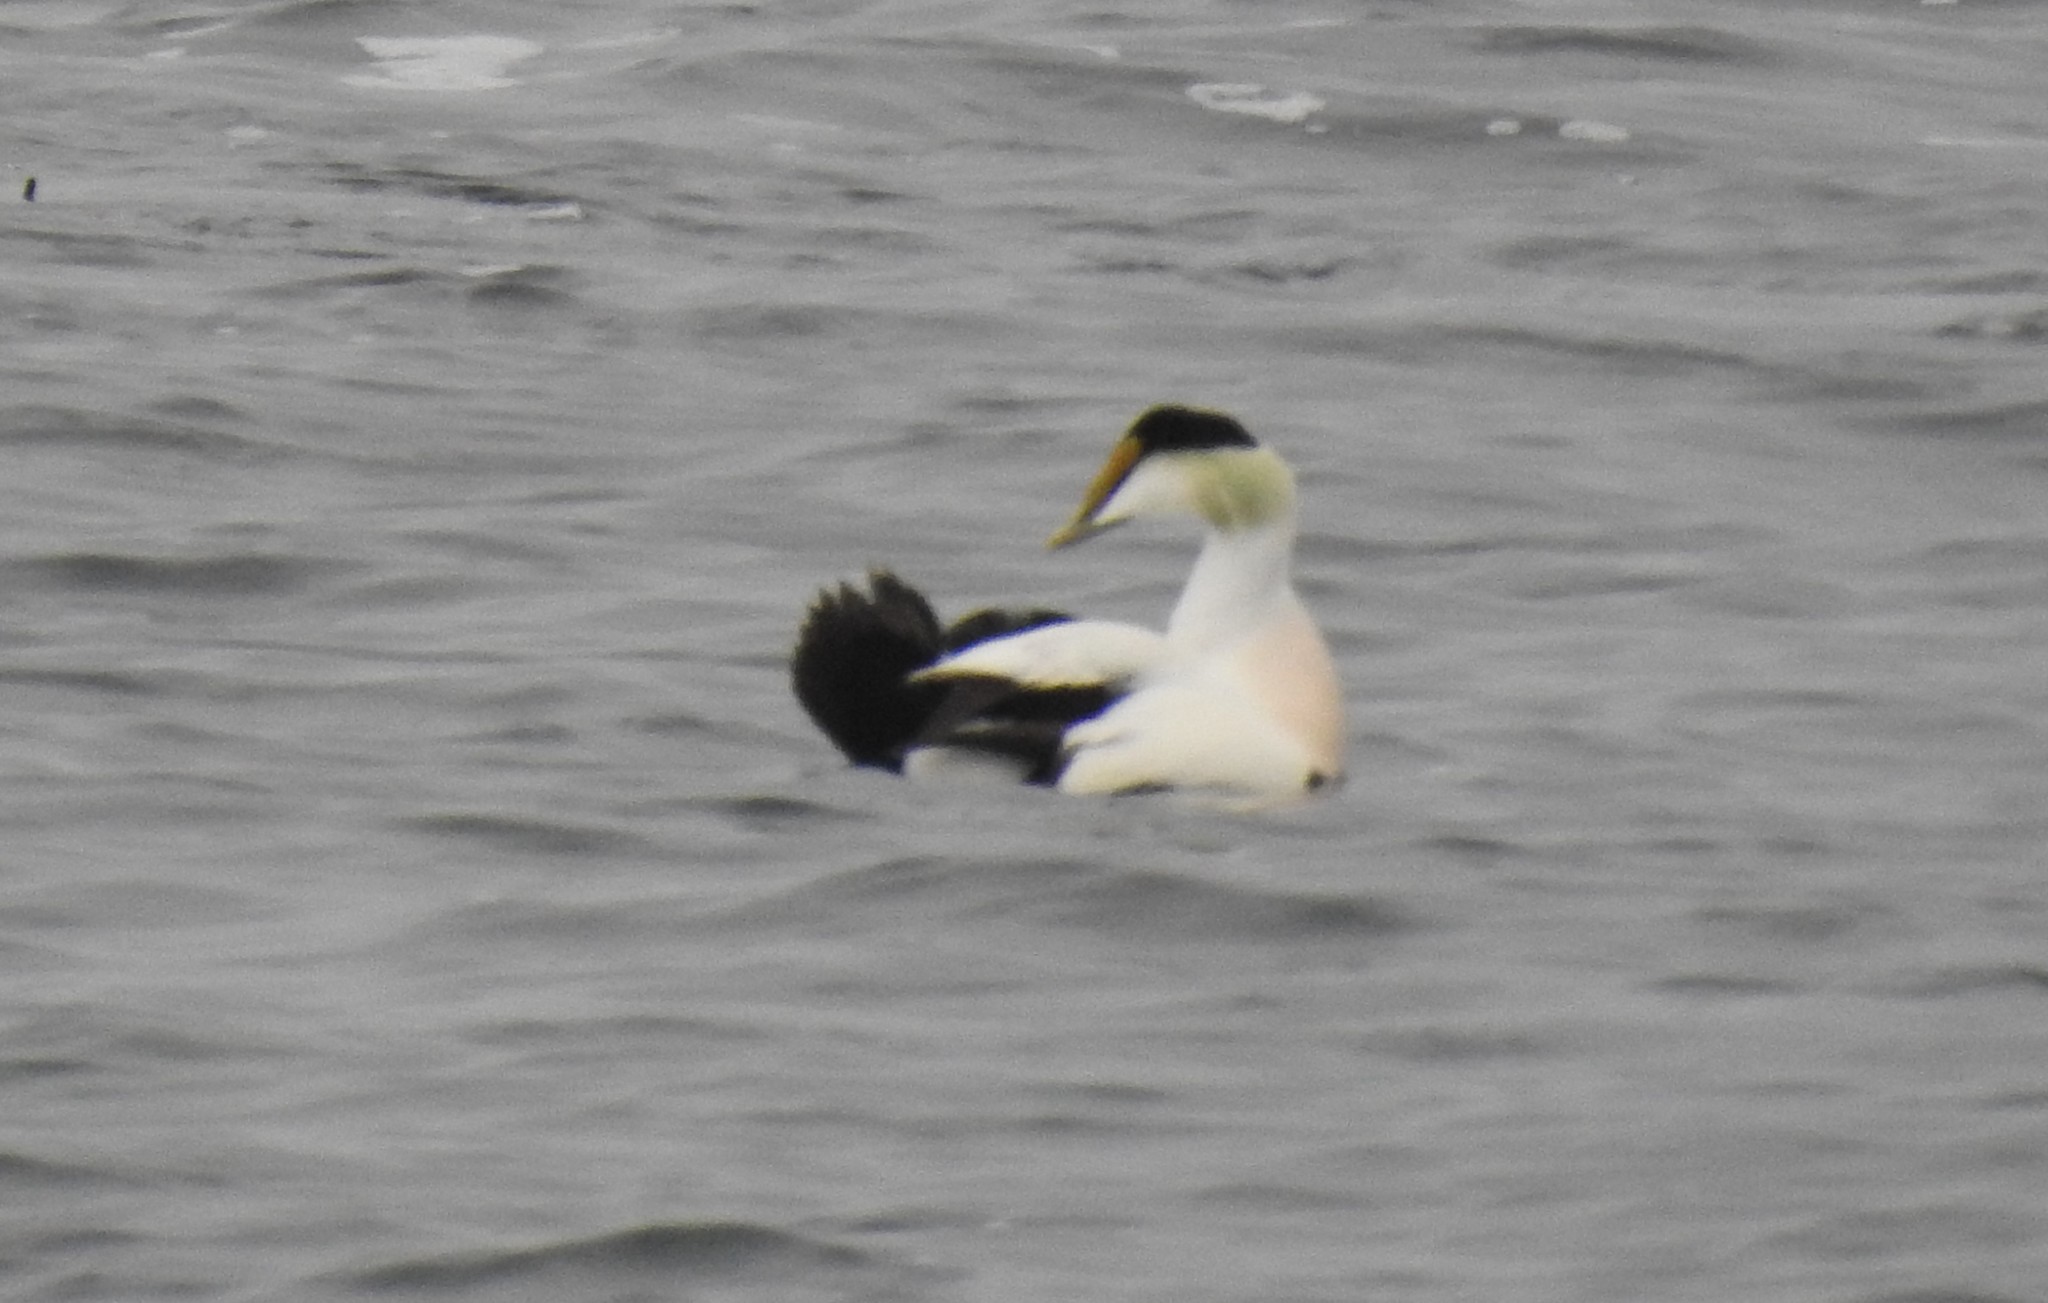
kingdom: Animalia
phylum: Chordata
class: Aves
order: Anseriformes
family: Anatidae
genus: Somateria
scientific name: Somateria mollissima
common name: Common eider
